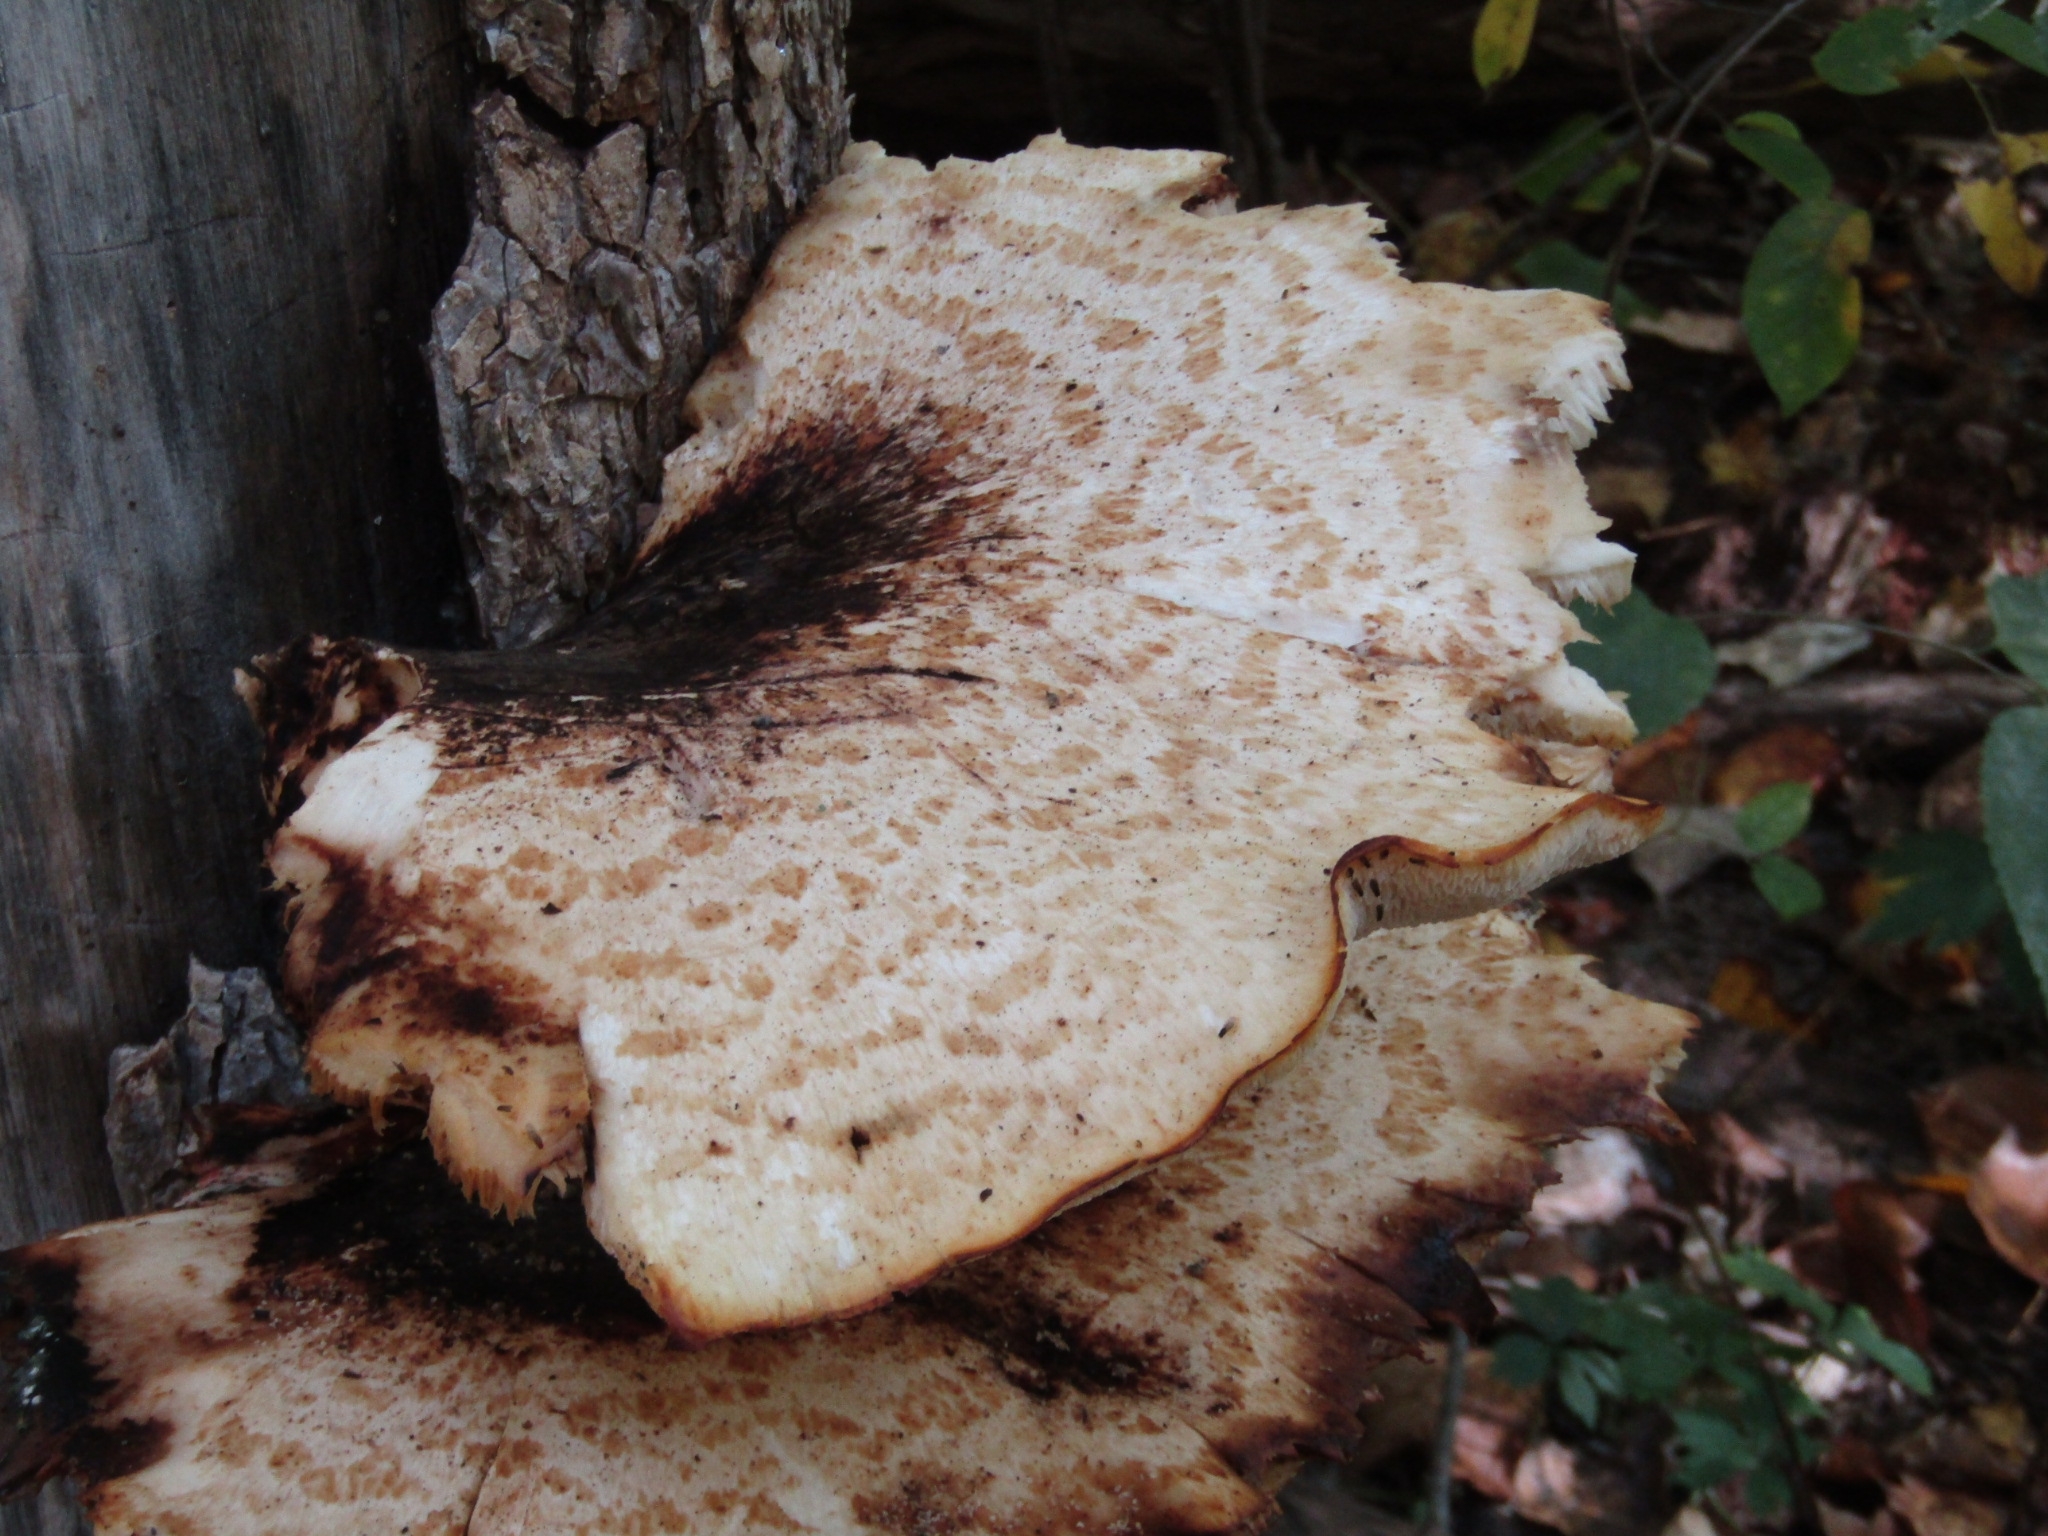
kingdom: Fungi
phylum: Basidiomycota
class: Agaricomycetes
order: Polyporales
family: Polyporaceae
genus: Cerioporus
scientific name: Cerioporus squamosus
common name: Dryad's saddle
